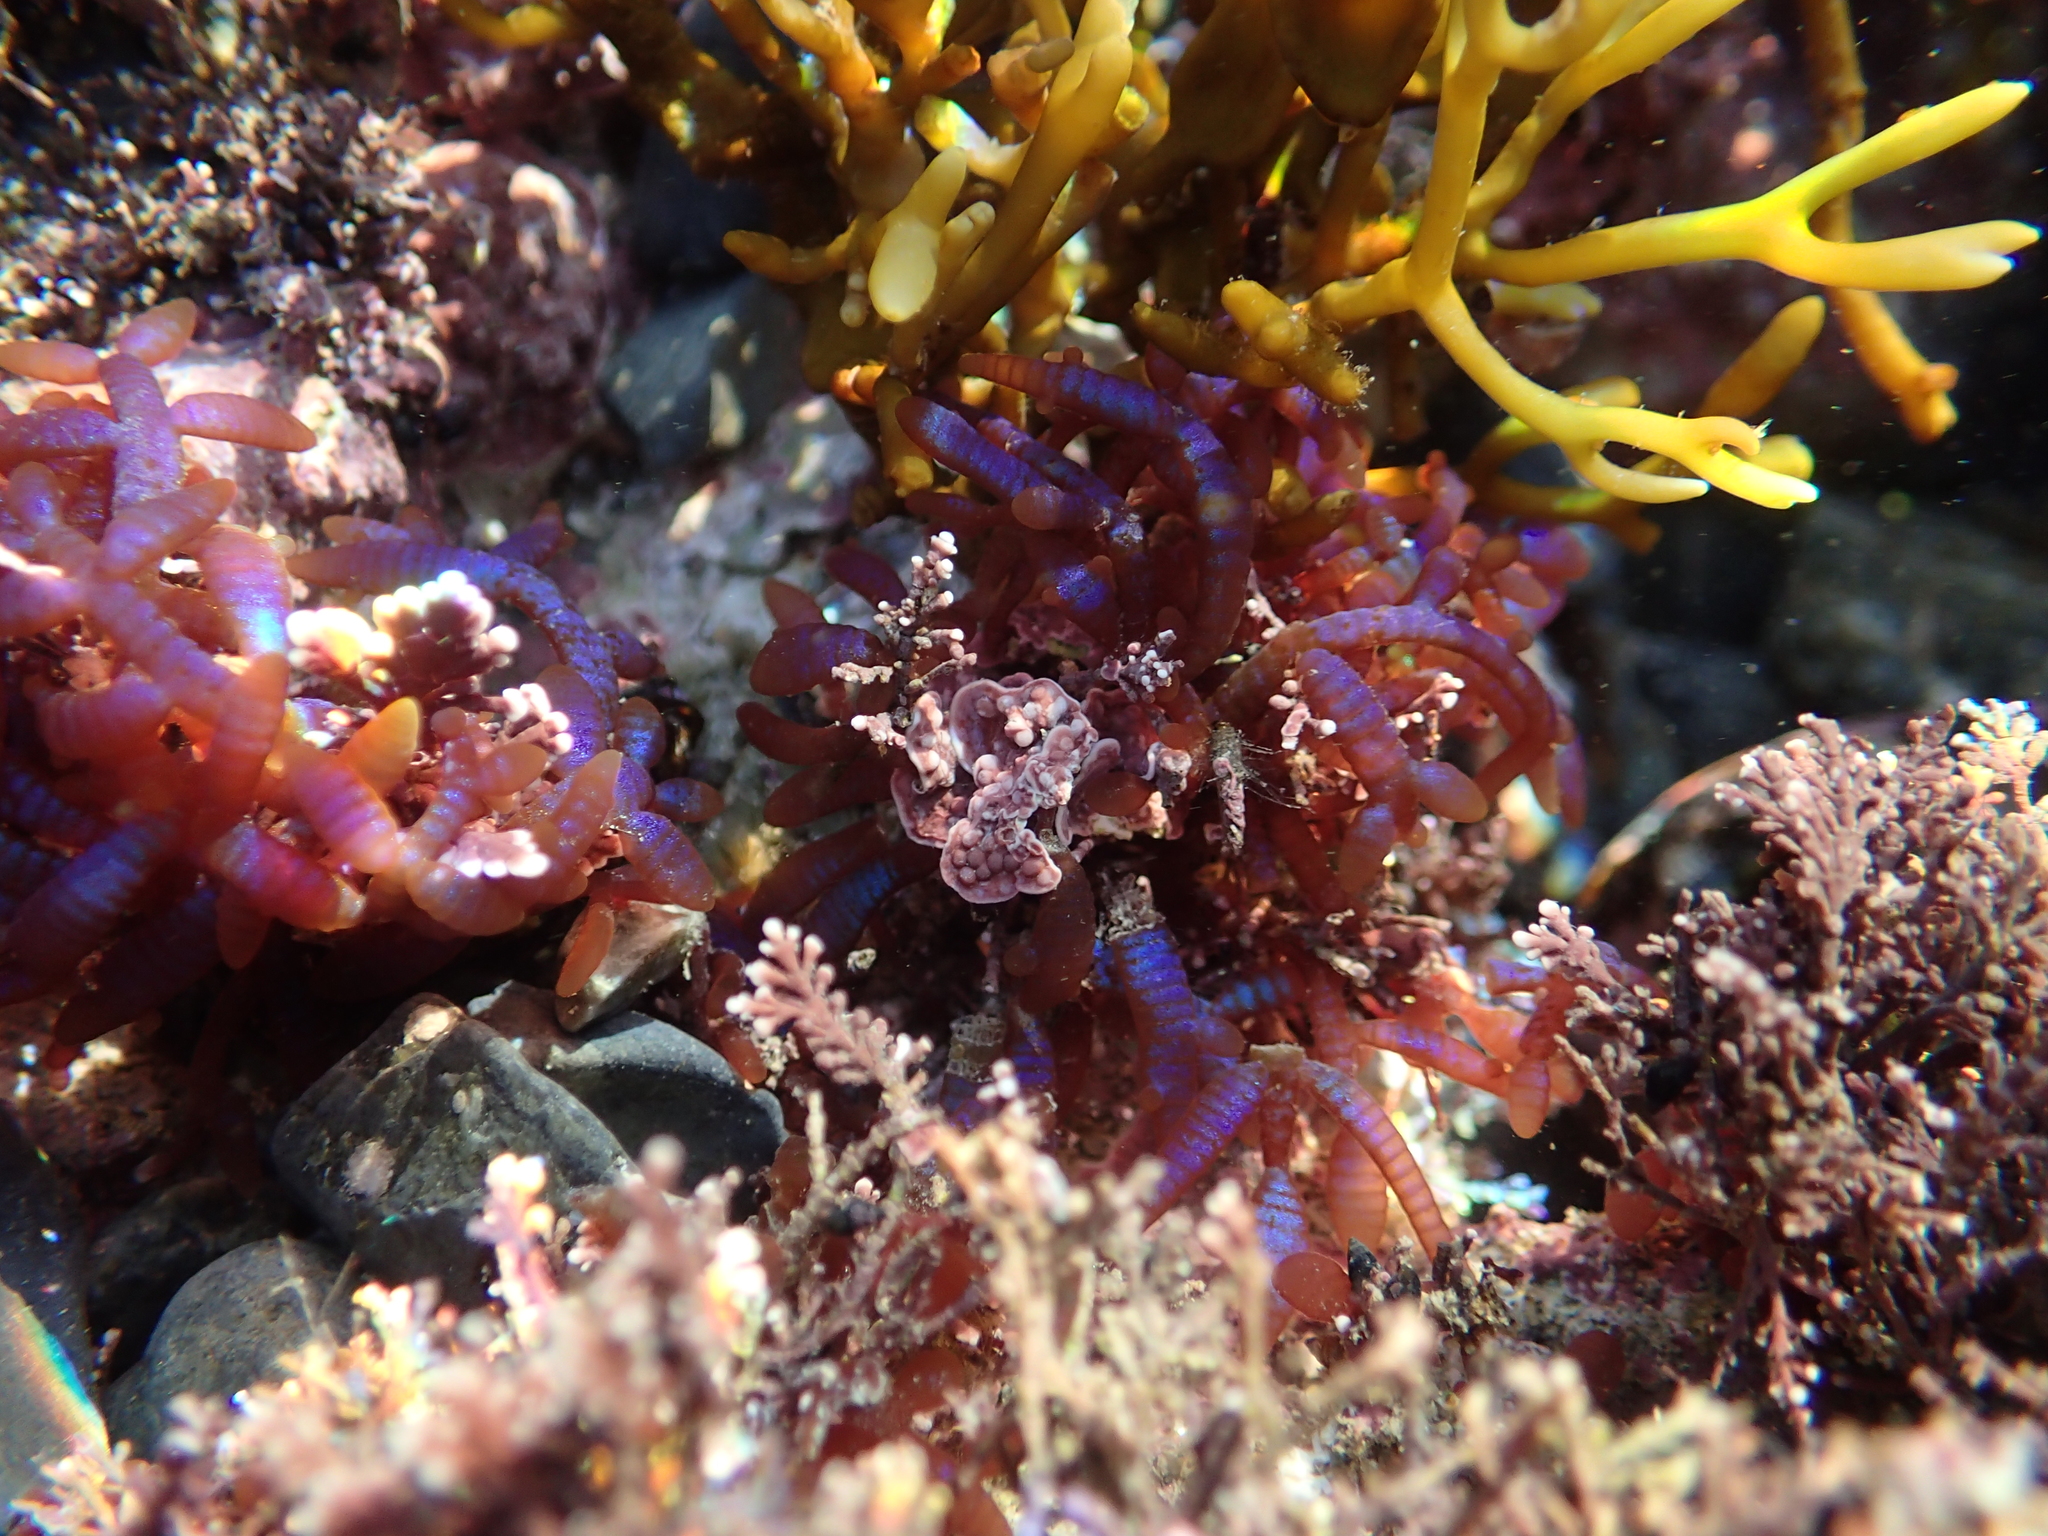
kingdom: Plantae
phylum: Rhodophyta
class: Florideophyceae
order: Rhodymeniales
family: Champiaceae
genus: Champia
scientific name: Champia laingii
